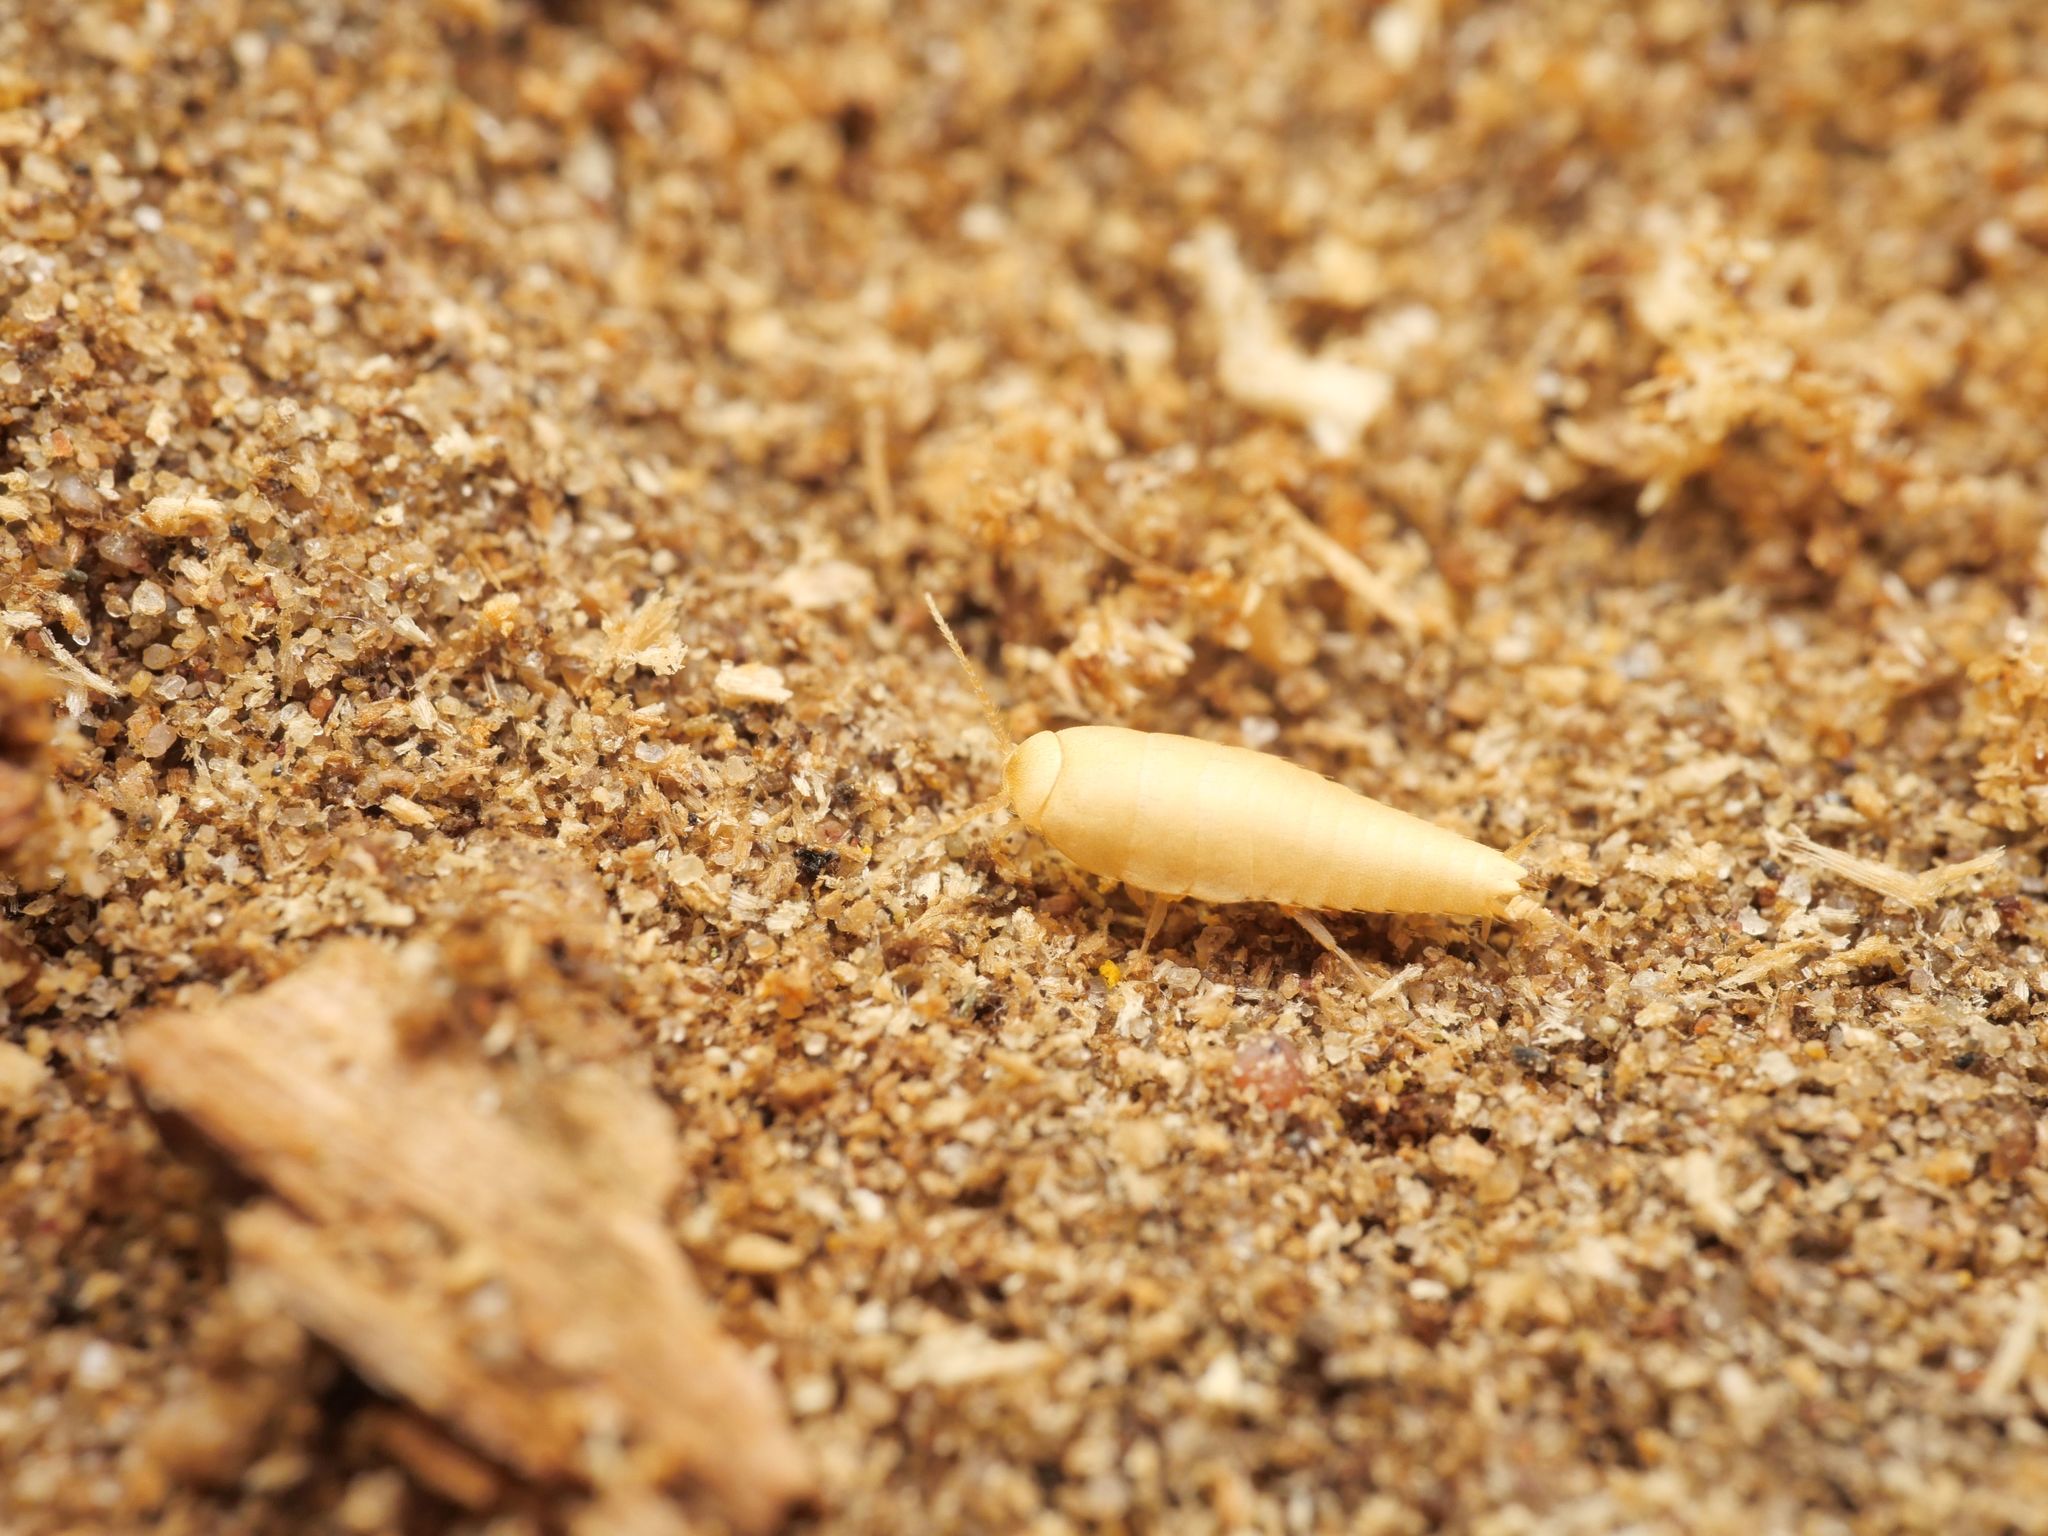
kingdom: Animalia
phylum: Arthropoda
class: Insecta
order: Zygentoma
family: Nicoletiidae
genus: Atelura
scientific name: Atelura formicaria
